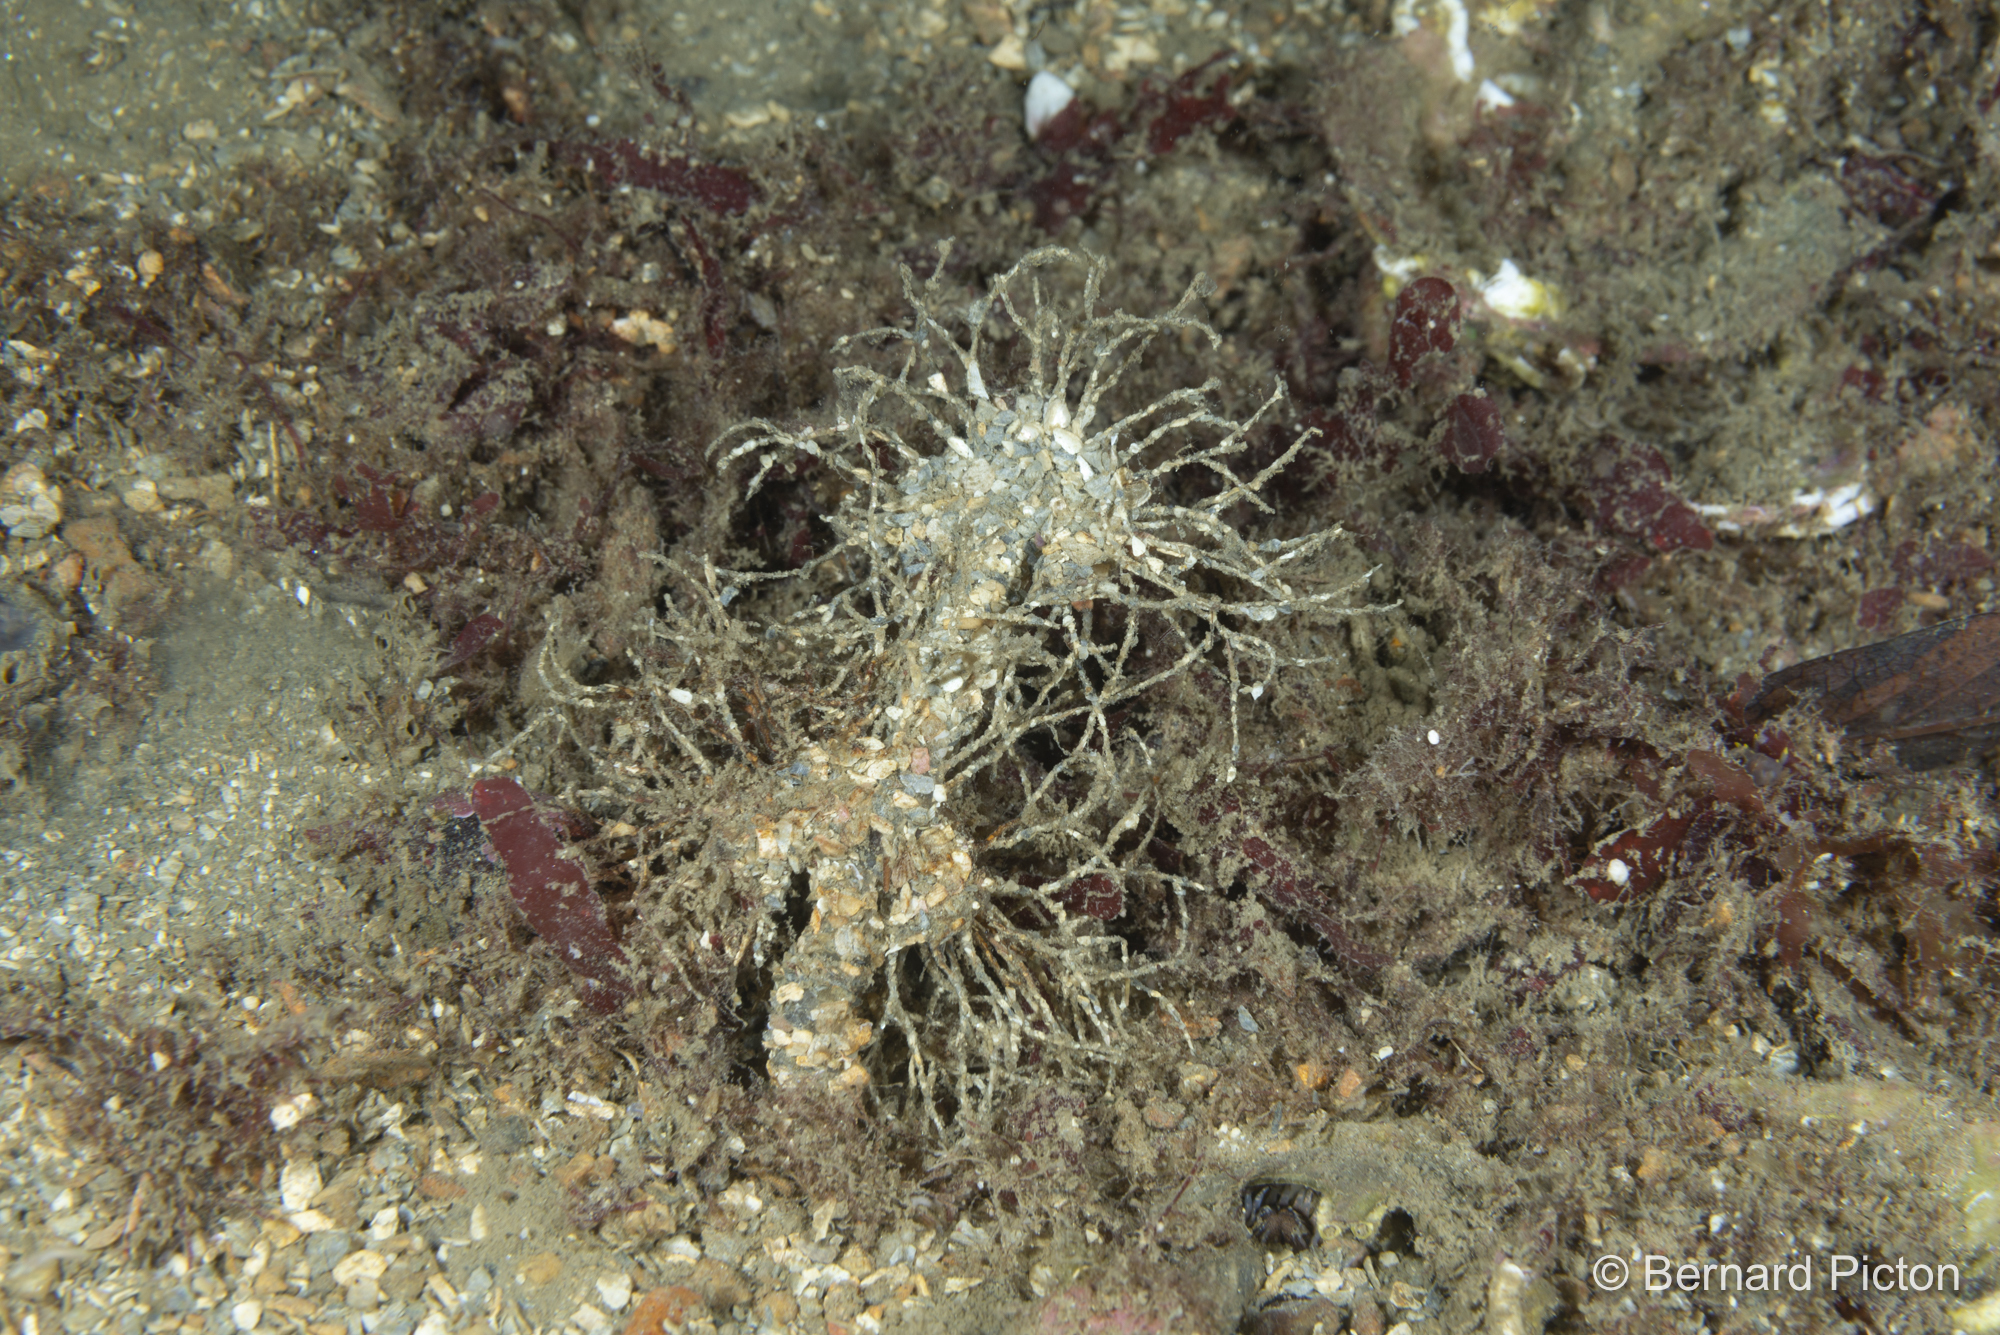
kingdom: Animalia
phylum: Annelida
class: Polychaeta
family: Terebellidae
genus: Lanice
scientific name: Lanice conchilega
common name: Sand mason
